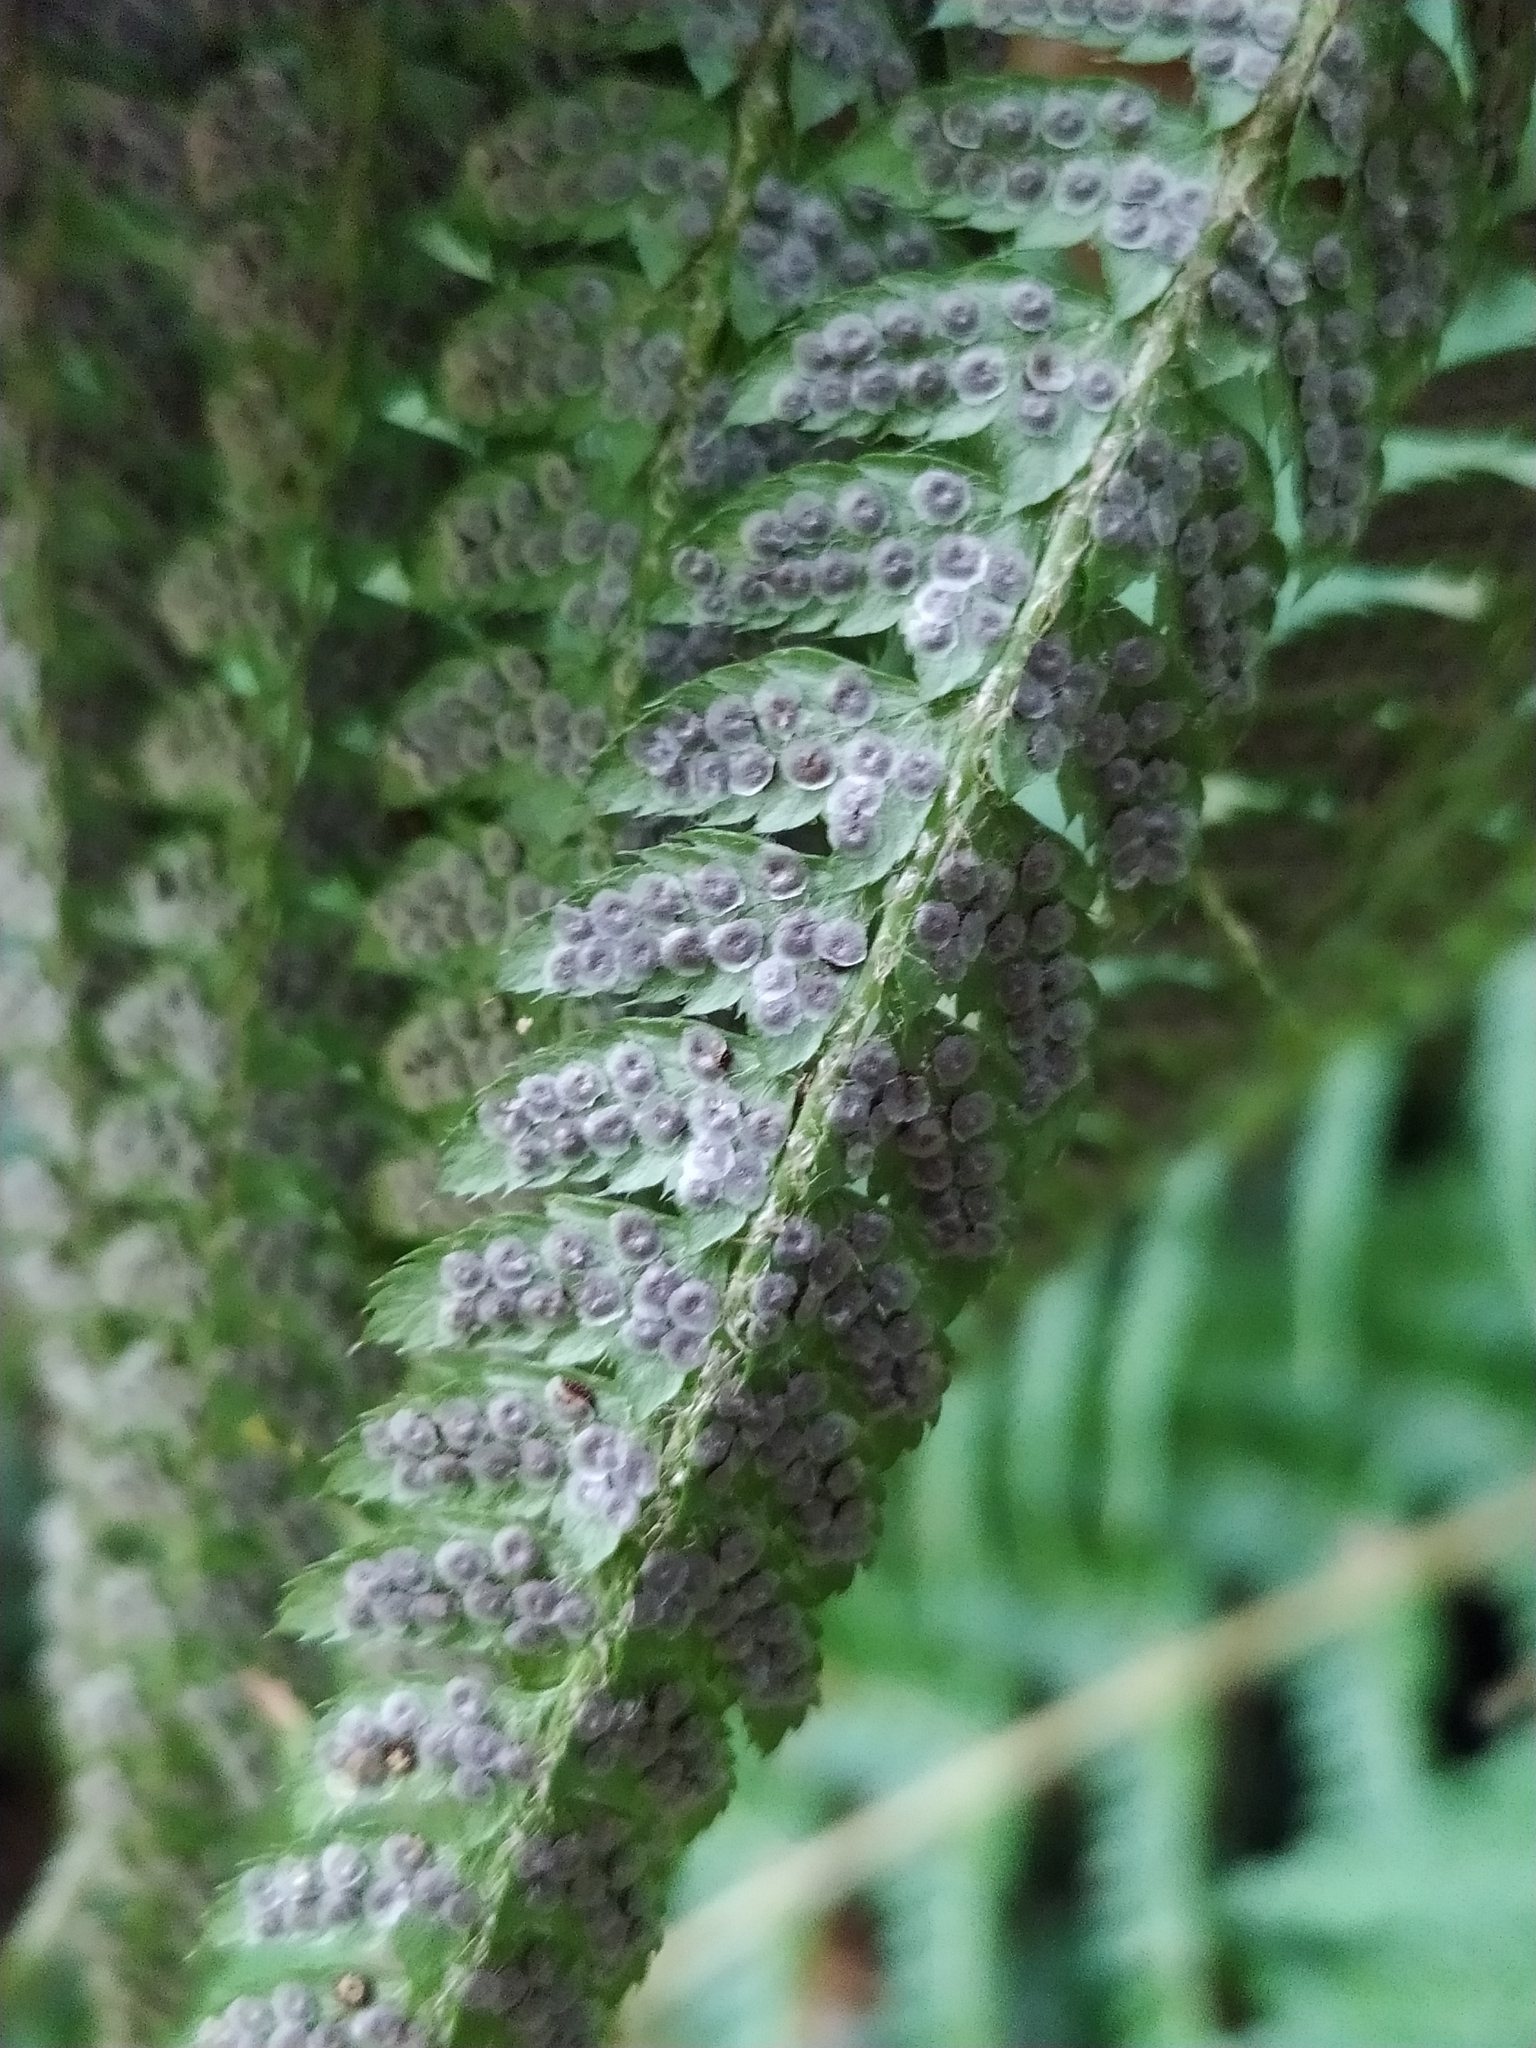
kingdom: Plantae
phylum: Tracheophyta
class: Polypodiopsida
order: Polypodiales
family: Dryopteridaceae
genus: Polystichum
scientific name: Polystichum setiferum
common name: Soft shield-fern
